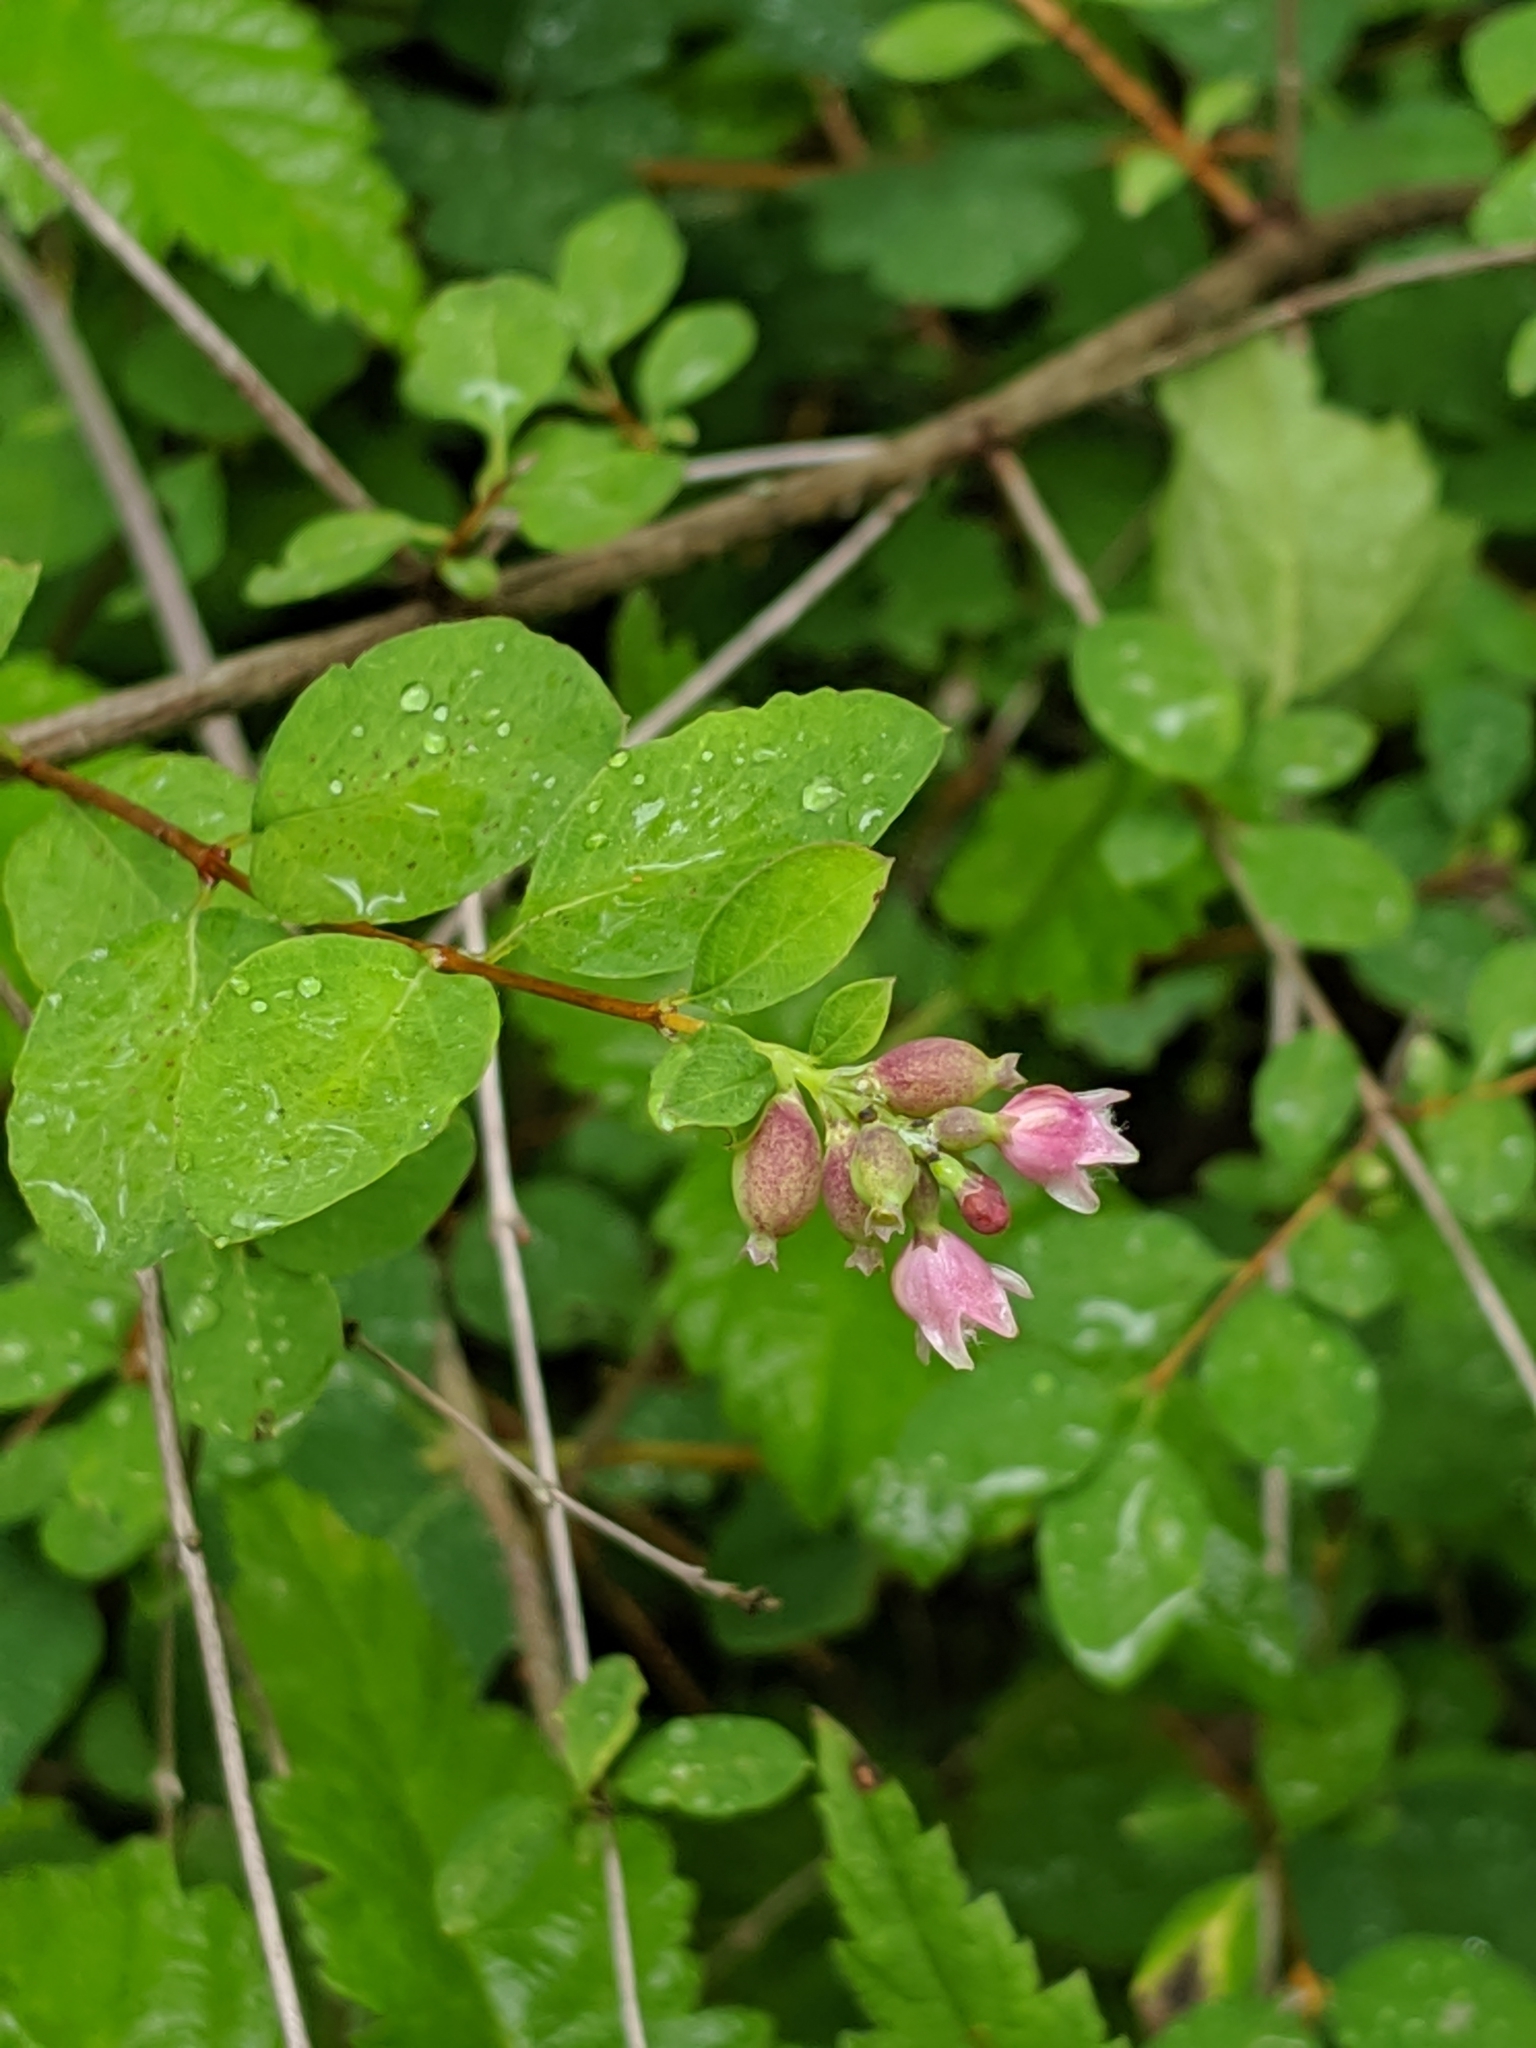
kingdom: Plantae
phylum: Tracheophyta
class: Magnoliopsida
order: Dipsacales
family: Caprifoliaceae
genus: Symphoricarpos
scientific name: Symphoricarpos albus
